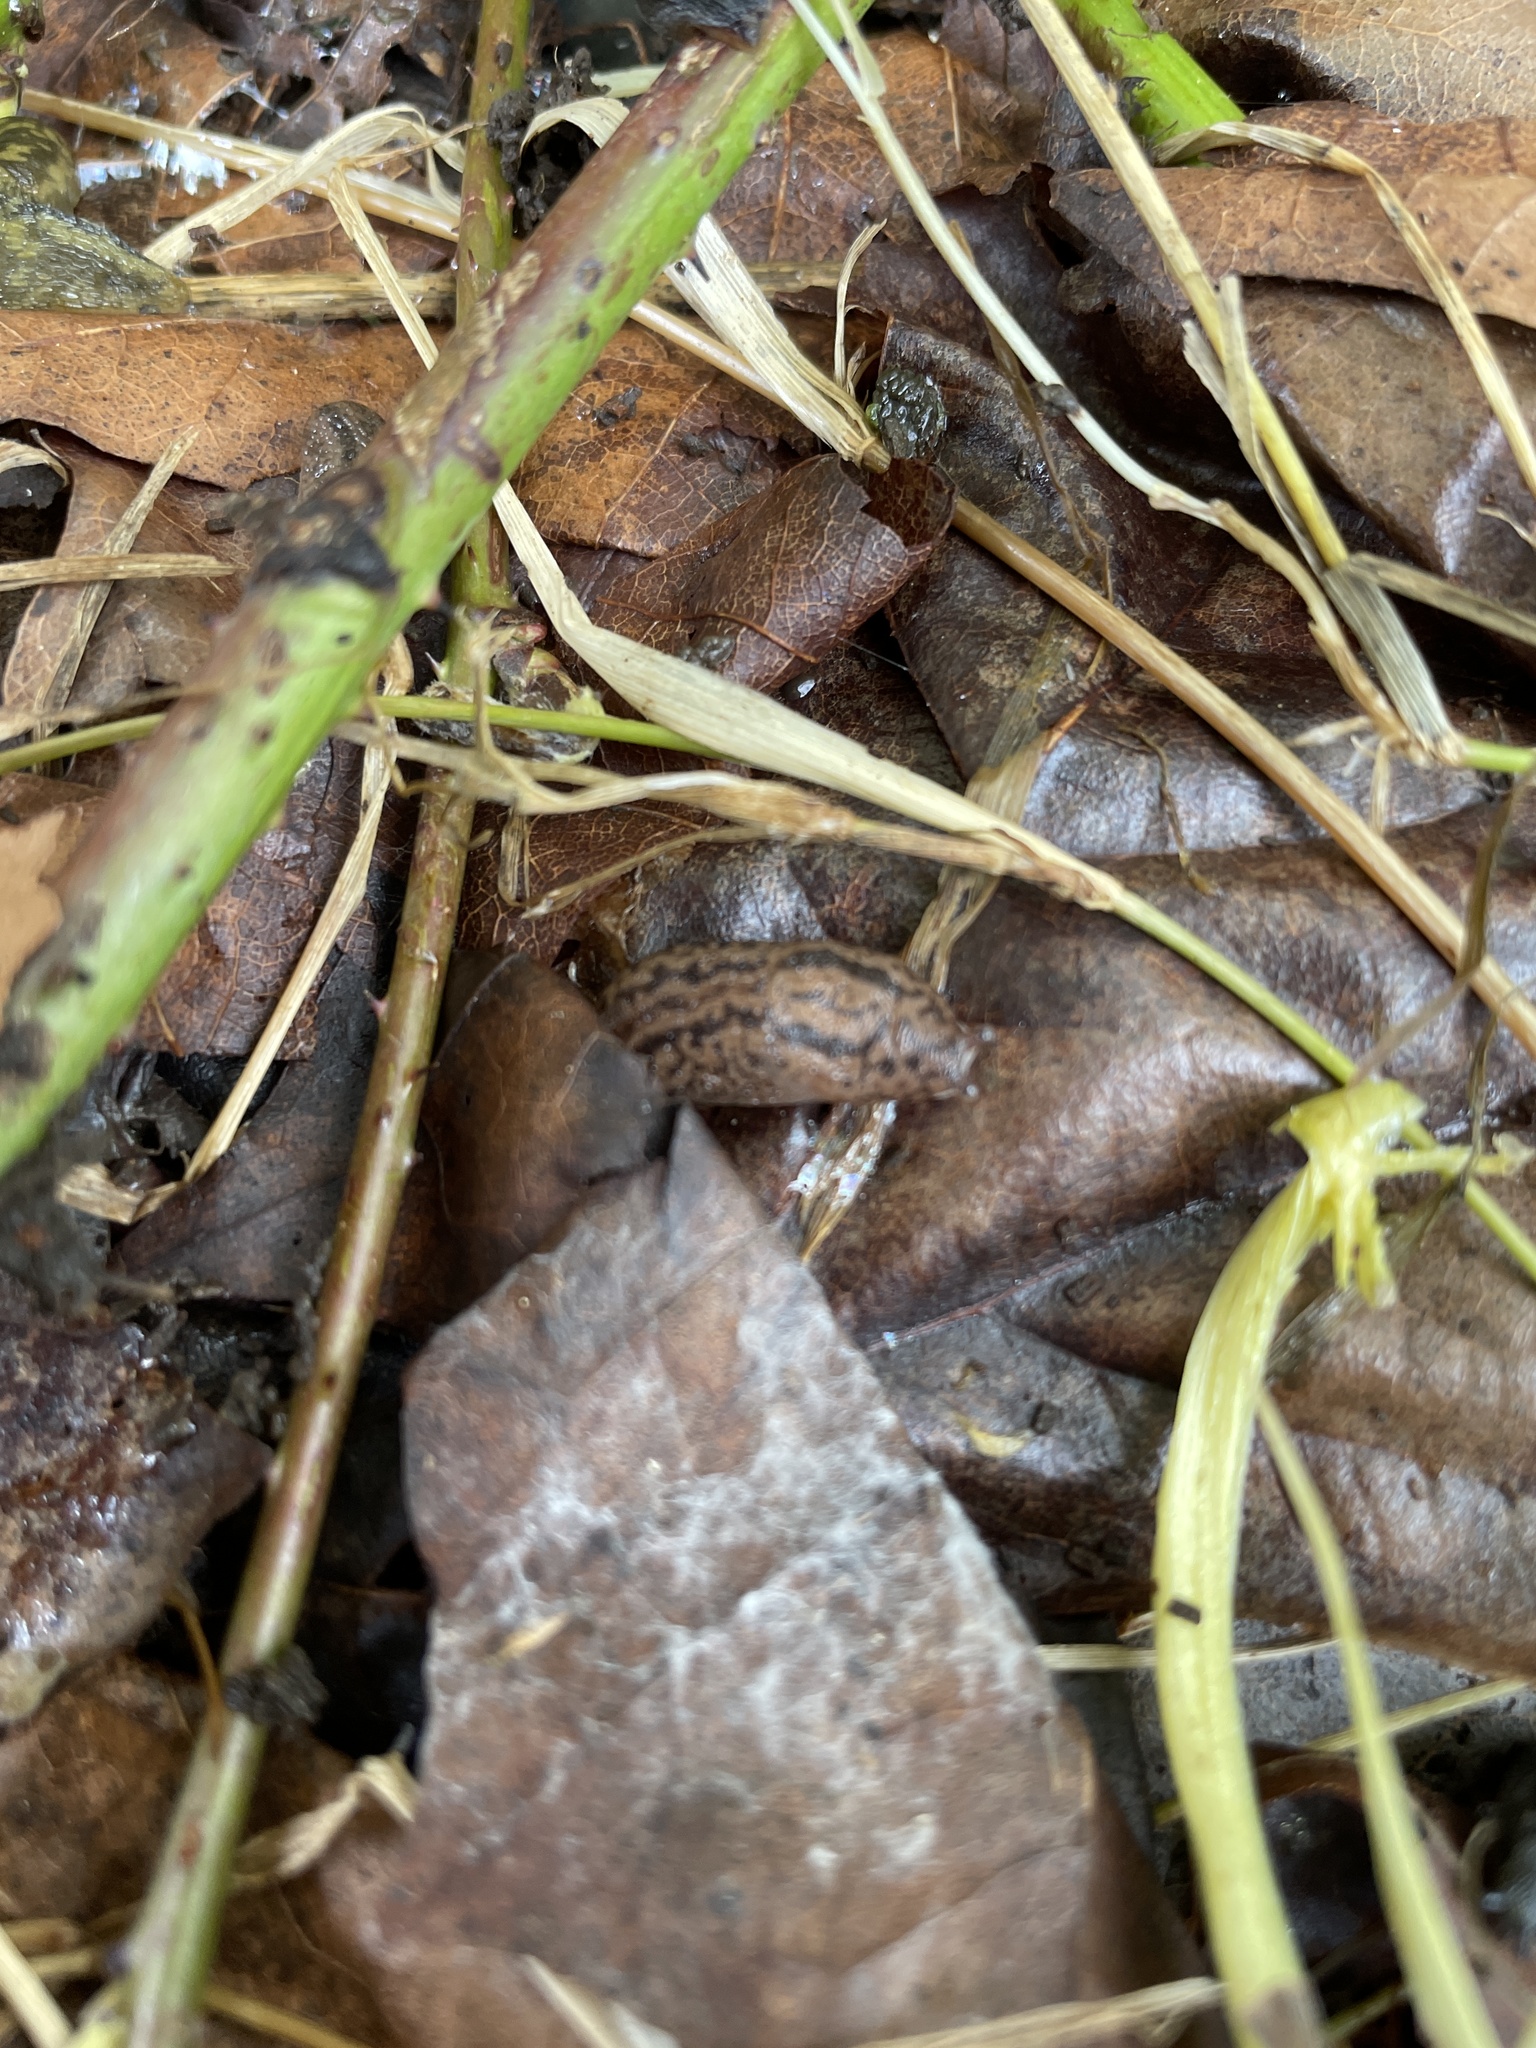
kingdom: Animalia
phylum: Mollusca
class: Gastropoda
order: Stylommatophora
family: Limacidae
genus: Limax
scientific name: Limax maximus
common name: Great grey slug
